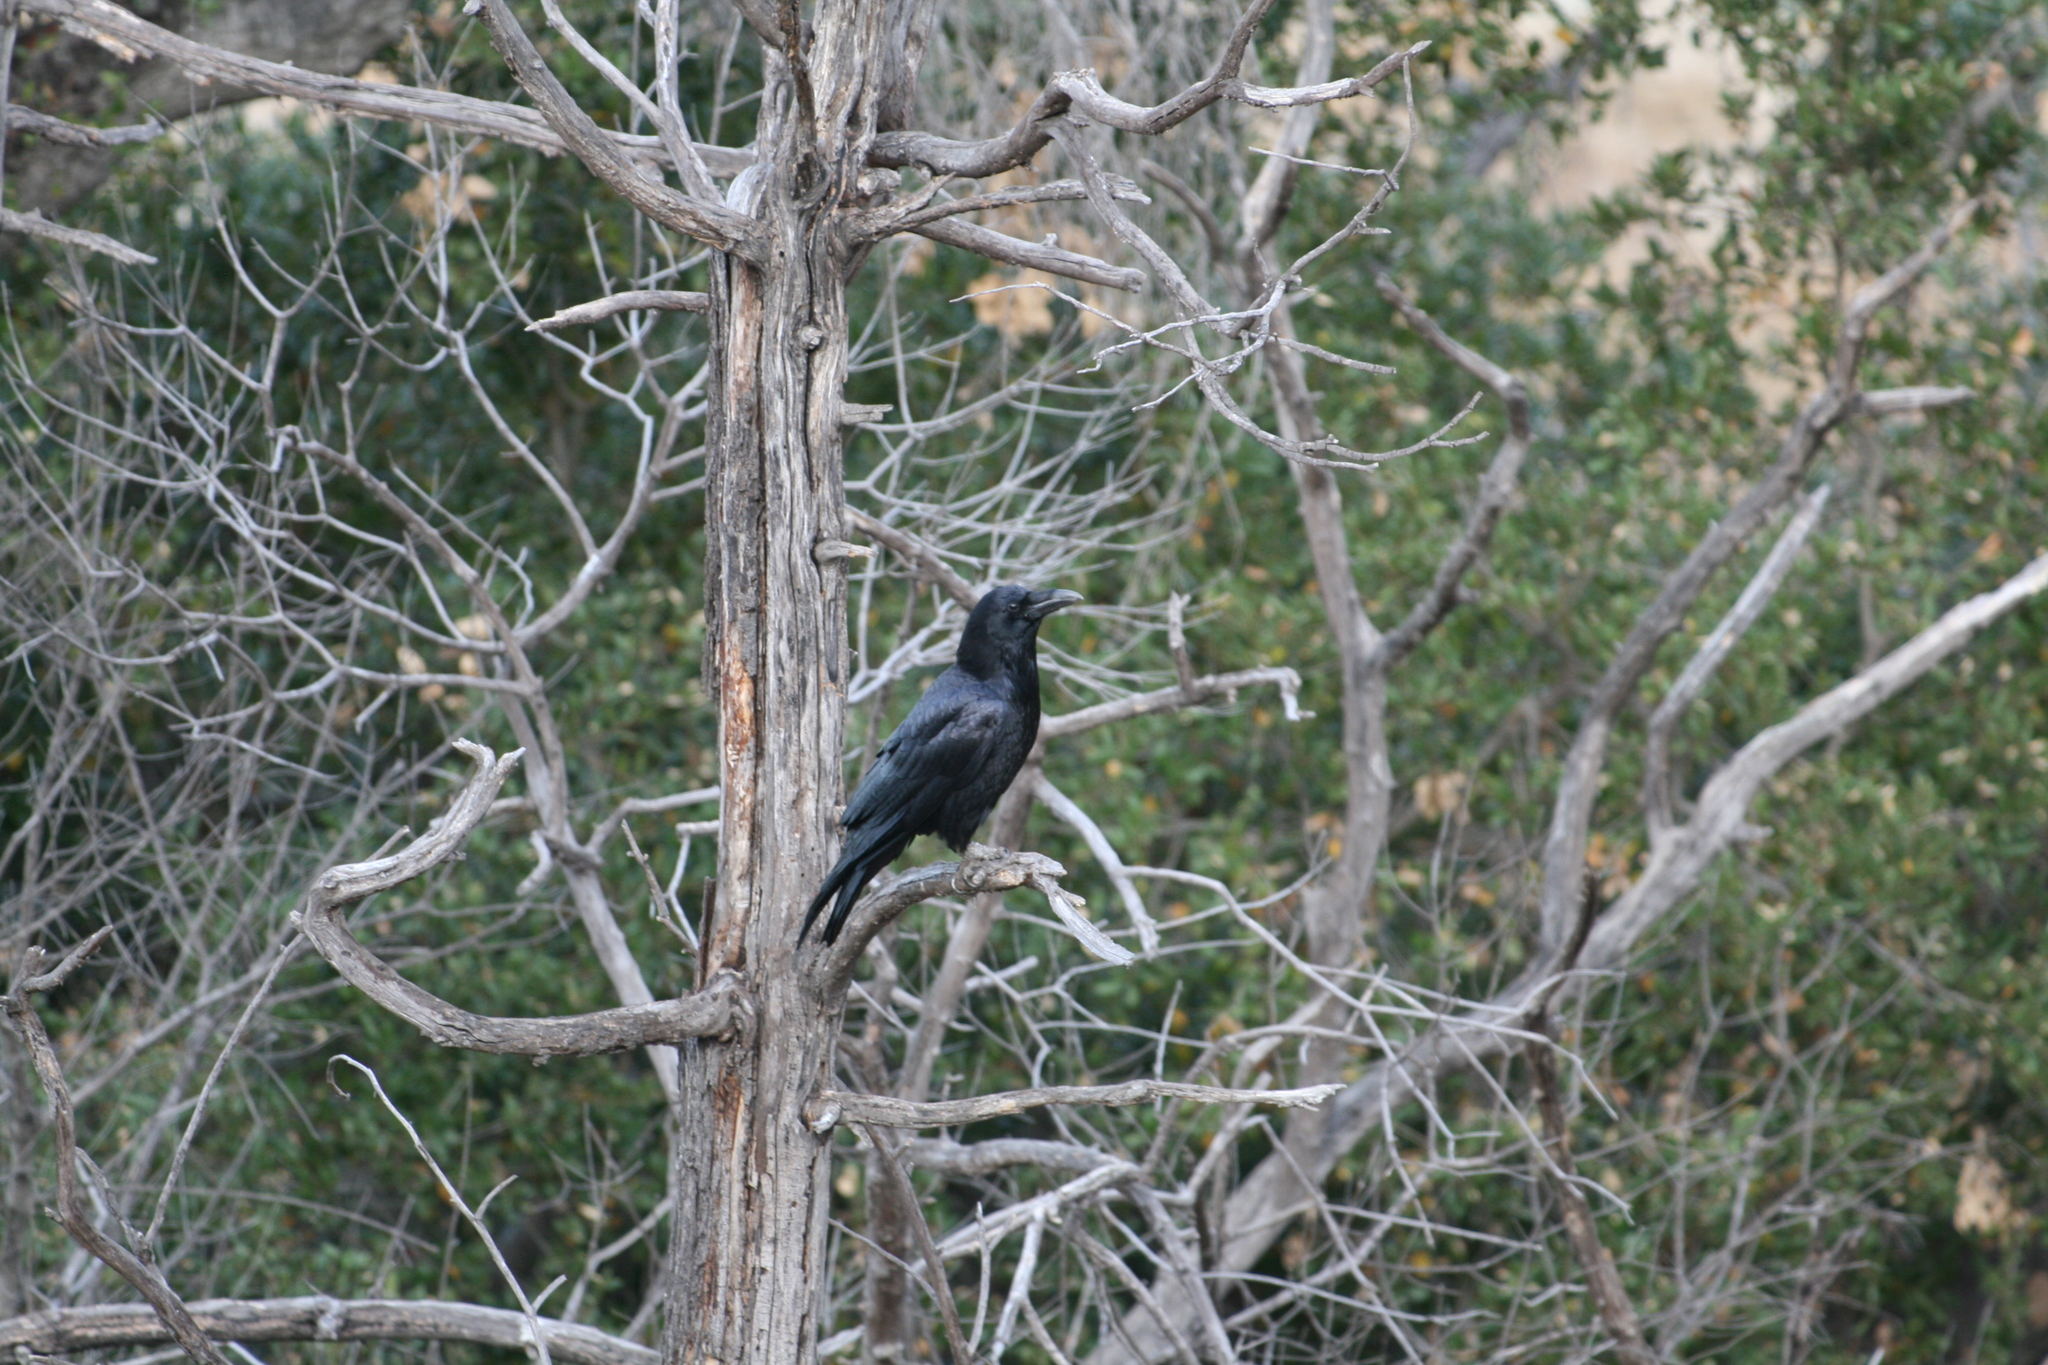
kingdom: Animalia
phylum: Chordata
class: Aves
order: Passeriformes
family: Corvidae
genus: Corvus
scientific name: Corvus corax
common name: Common raven
